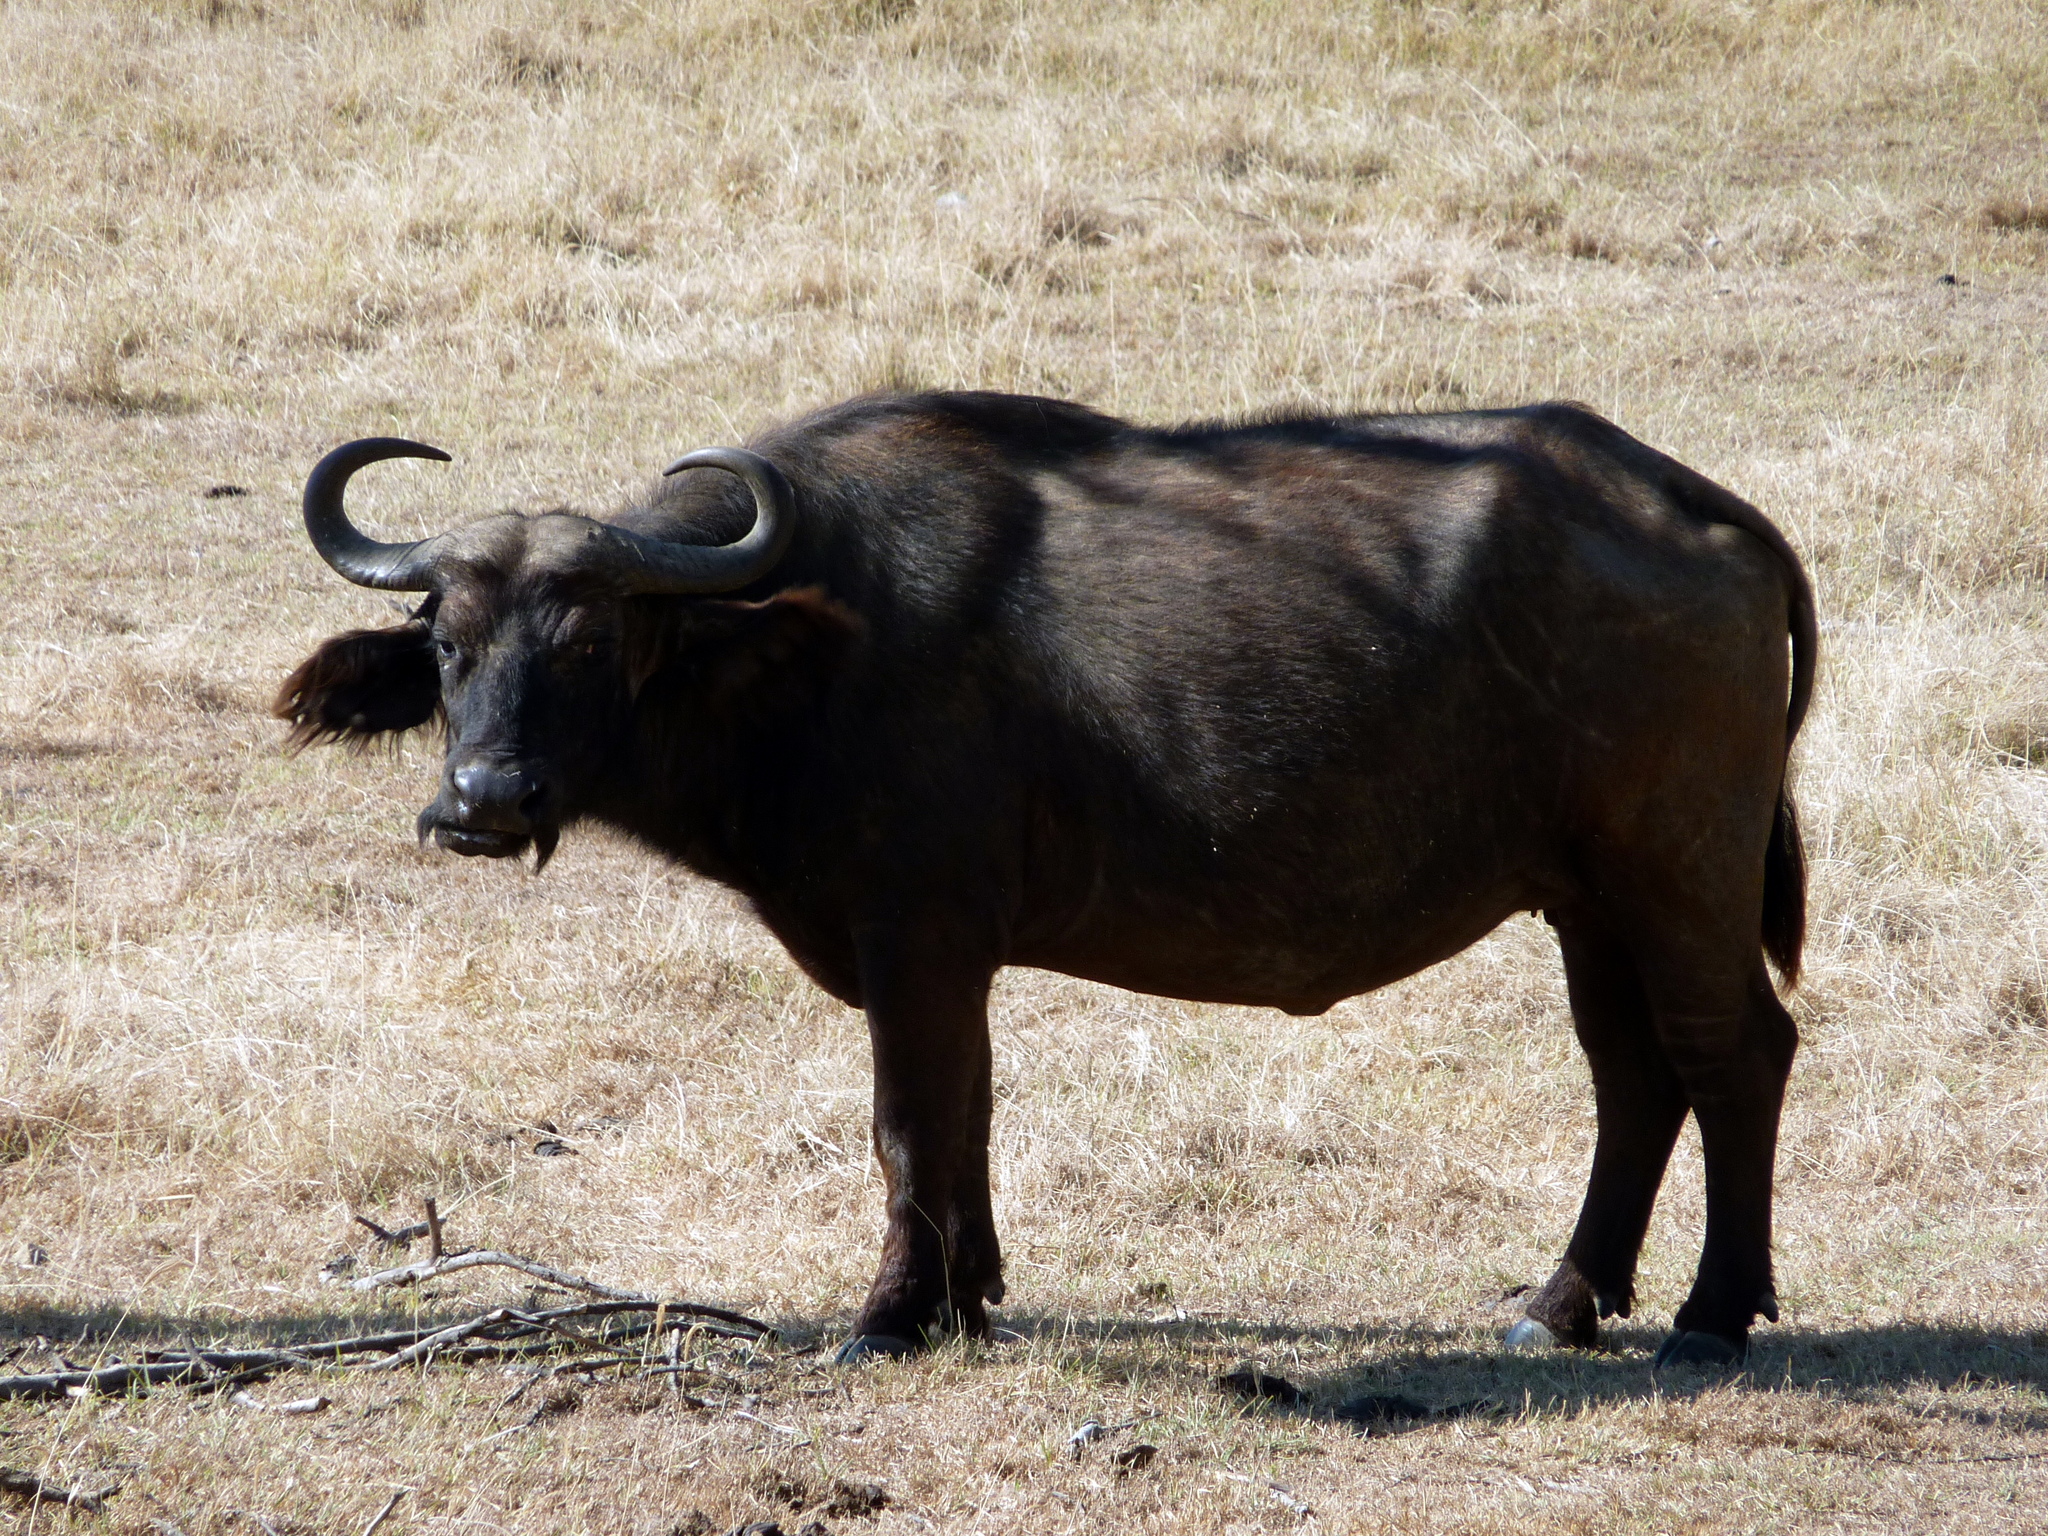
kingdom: Animalia
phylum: Chordata
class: Mammalia
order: Artiodactyla
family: Bovidae
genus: Syncerus
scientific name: Syncerus caffer
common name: African buffalo
